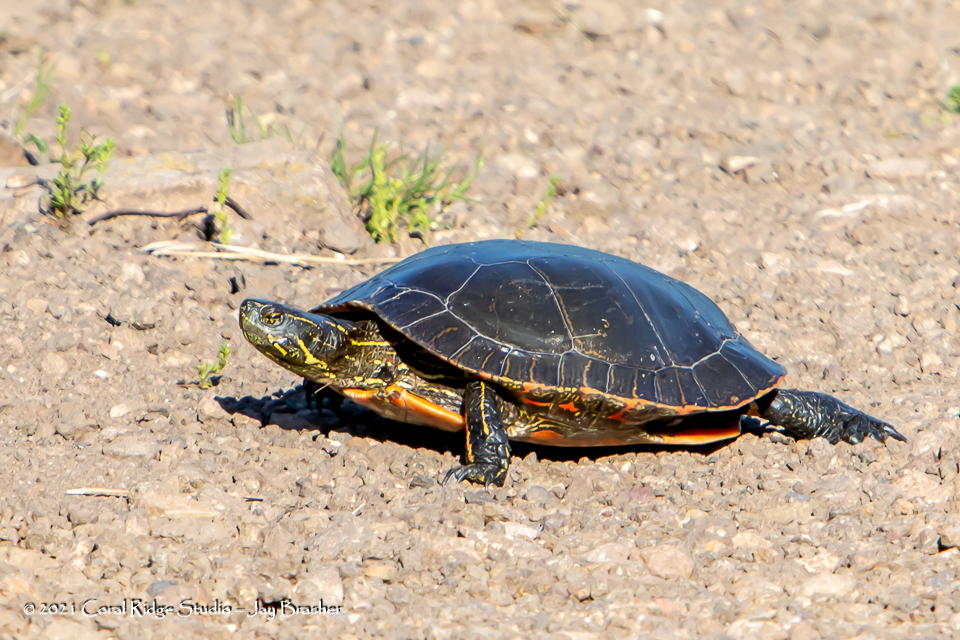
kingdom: Animalia
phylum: Chordata
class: Testudines
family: Emydidae
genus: Chrysemys
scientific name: Chrysemys picta
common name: Painted turtle
